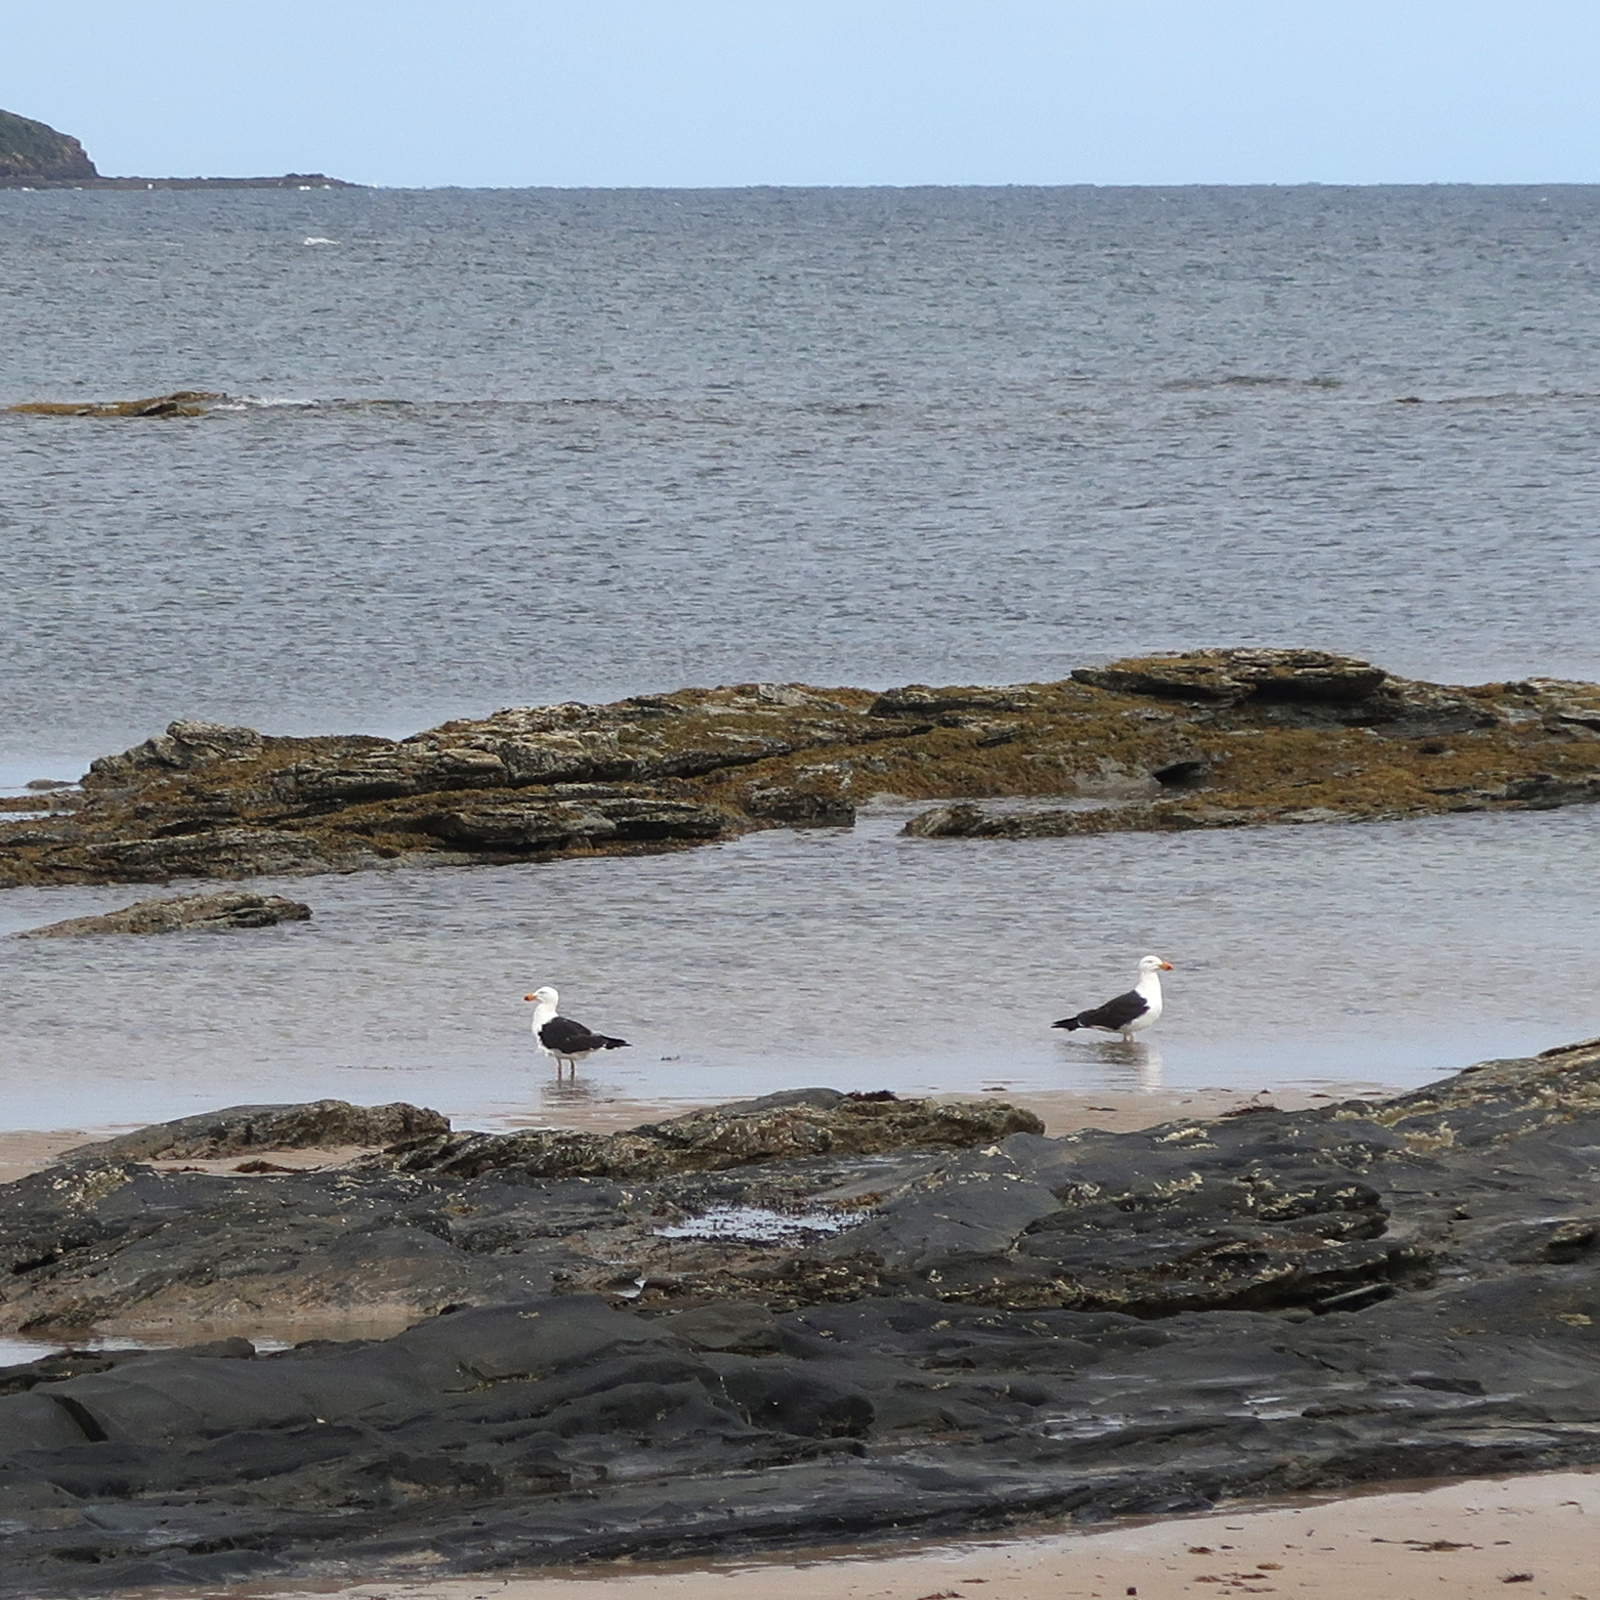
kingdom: Animalia
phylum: Chordata
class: Aves
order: Charadriiformes
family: Laridae
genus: Larus
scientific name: Larus pacificus
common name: Pacific gull
